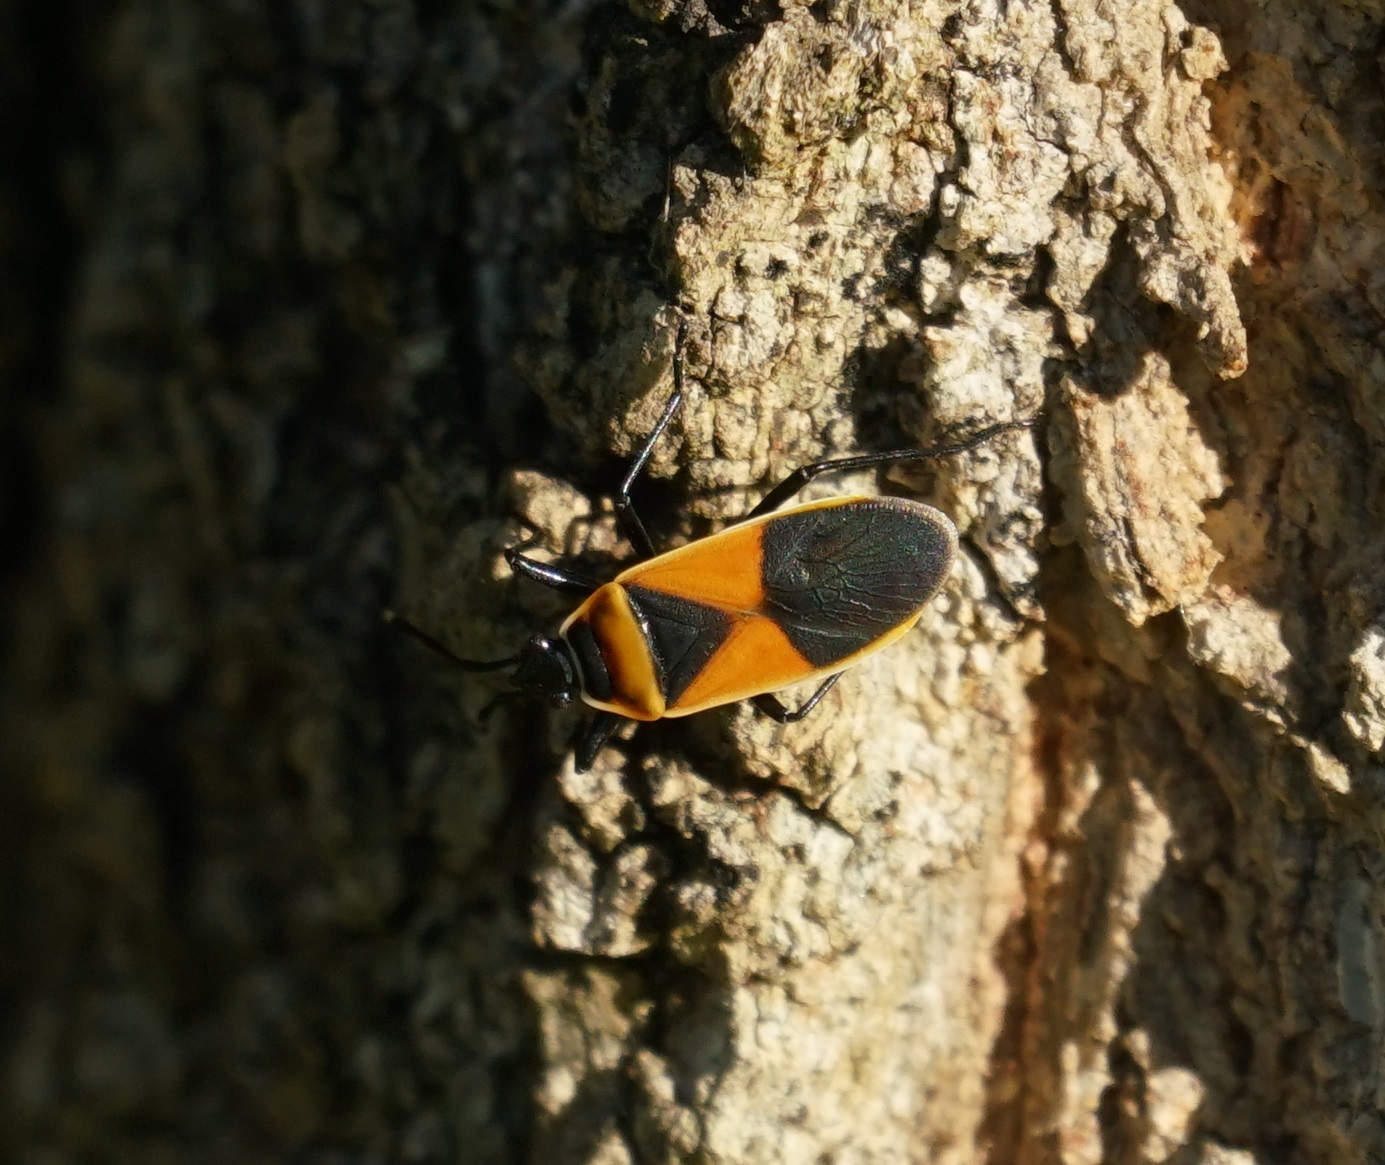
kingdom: Animalia
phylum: Arthropoda
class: Insecta
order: Hemiptera
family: Pyrrhocoridae
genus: Dindymus
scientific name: Dindymus
